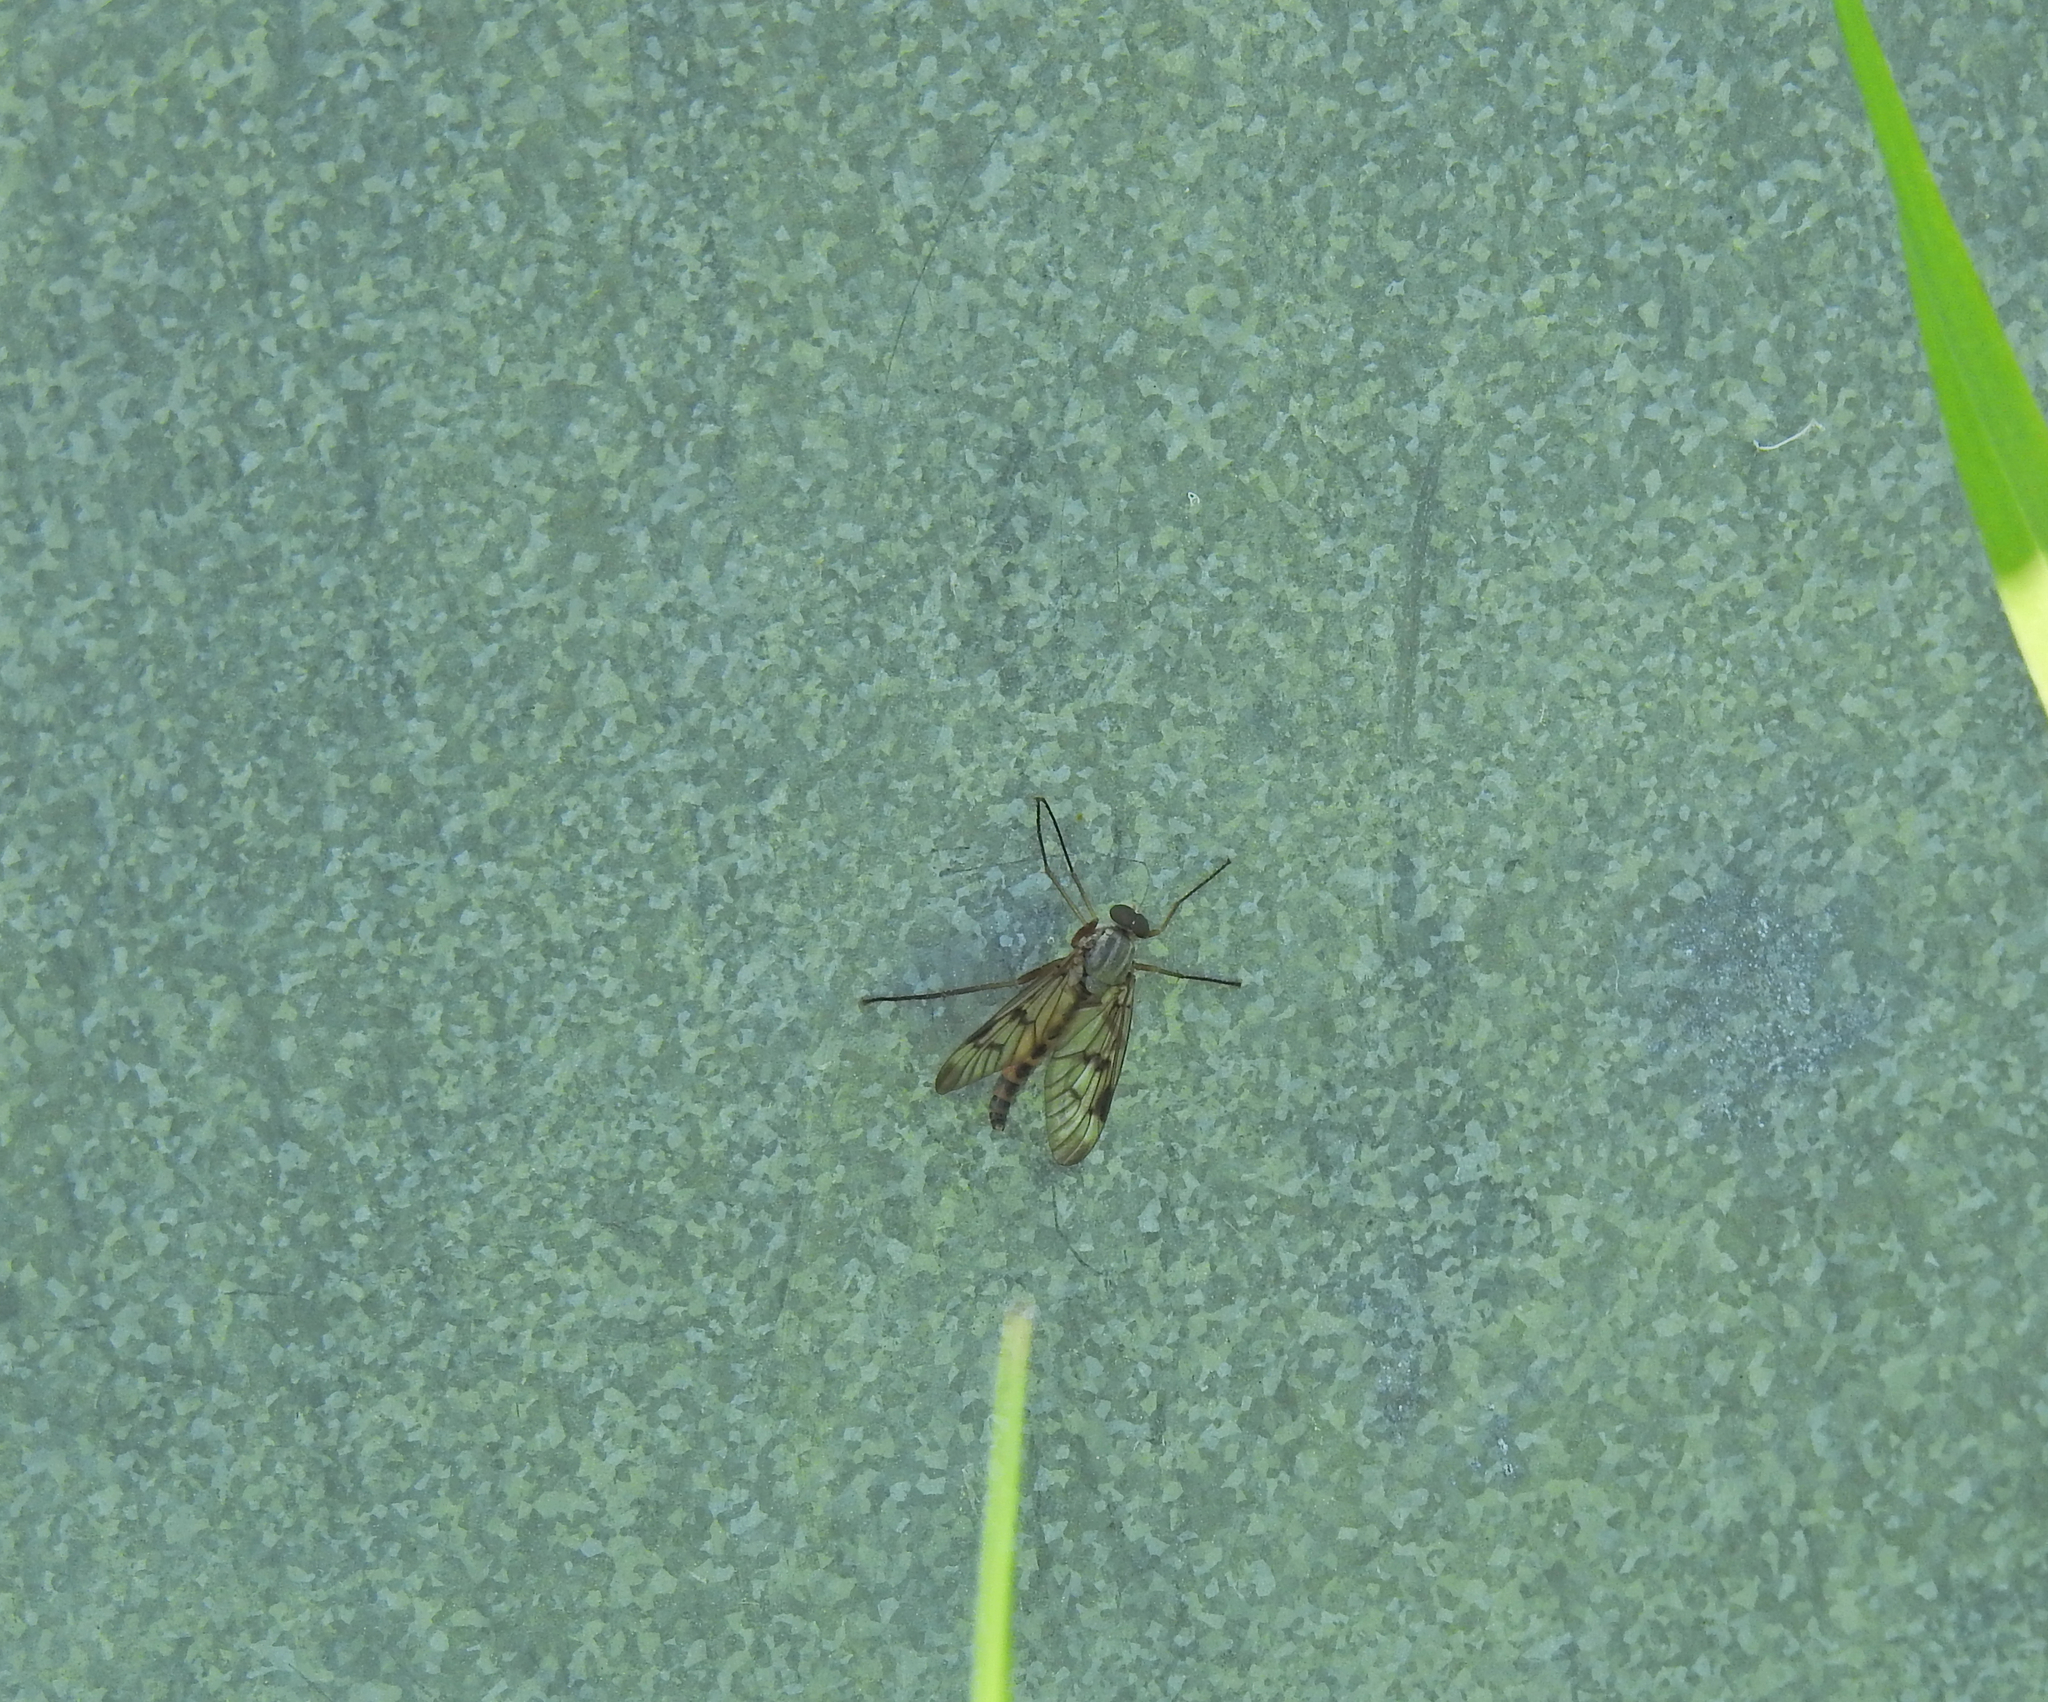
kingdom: Animalia
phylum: Arthropoda
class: Insecta
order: Diptera
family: Rhagionidae
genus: Rhagio
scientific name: Rhagio scolopacea
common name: Downlooker snipefly
